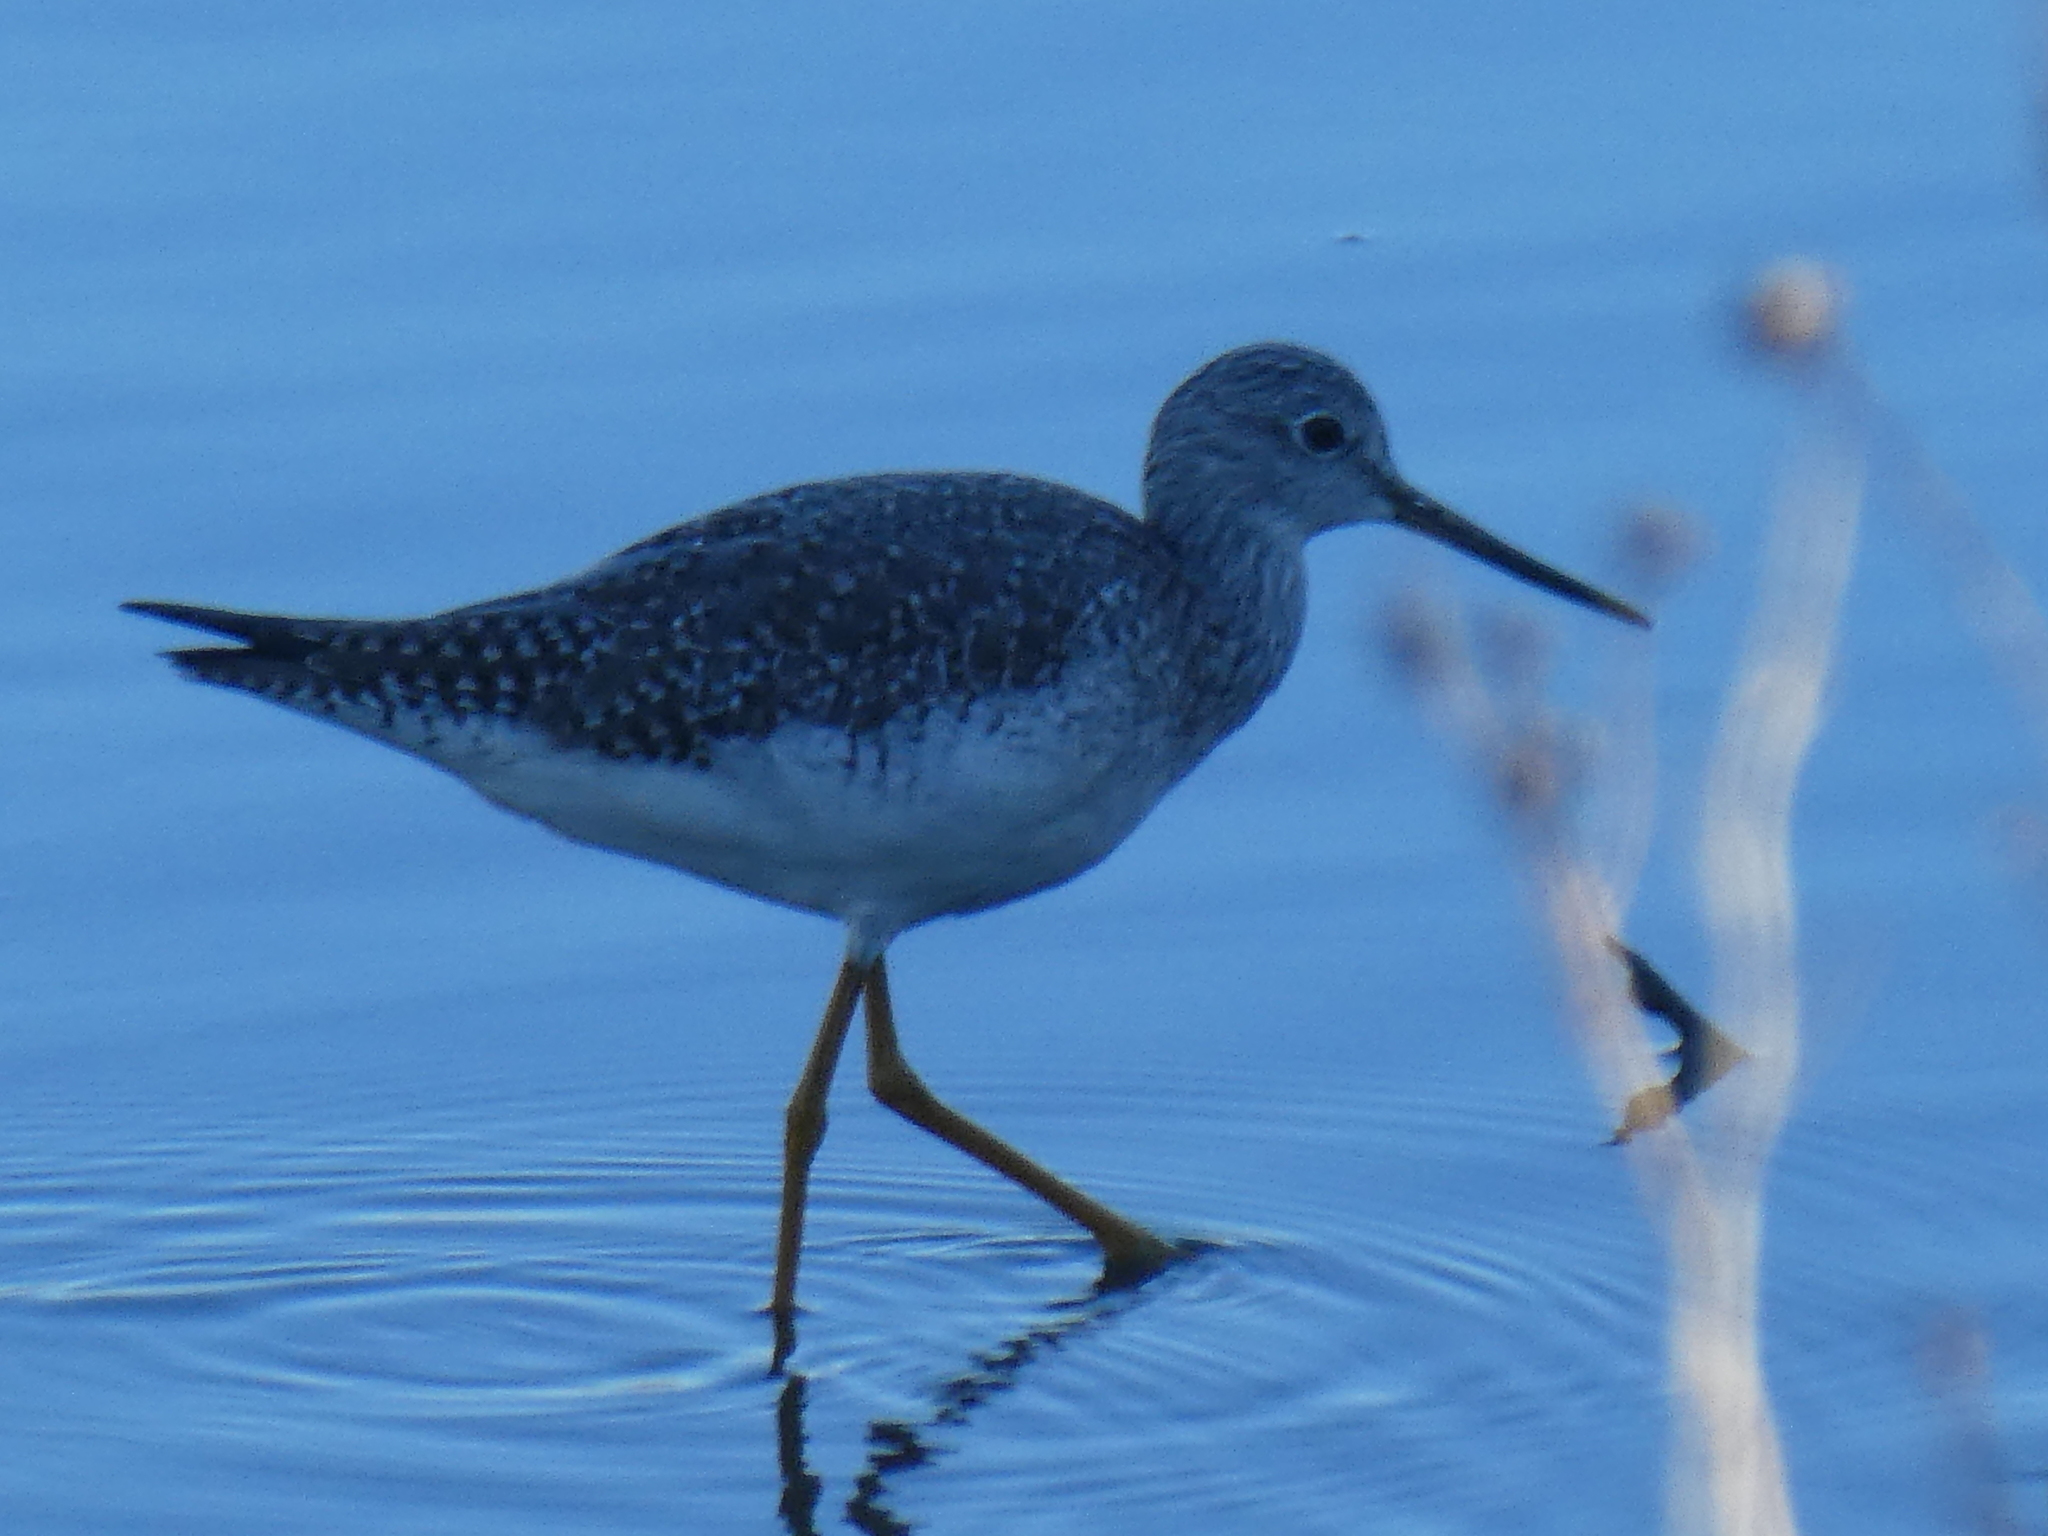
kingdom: Animalia
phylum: Chordata
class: Aves
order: Charadriiformes
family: Scolopacidae
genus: Tringa
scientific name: Tringa melanoleuca
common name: Greater yellowlegs
